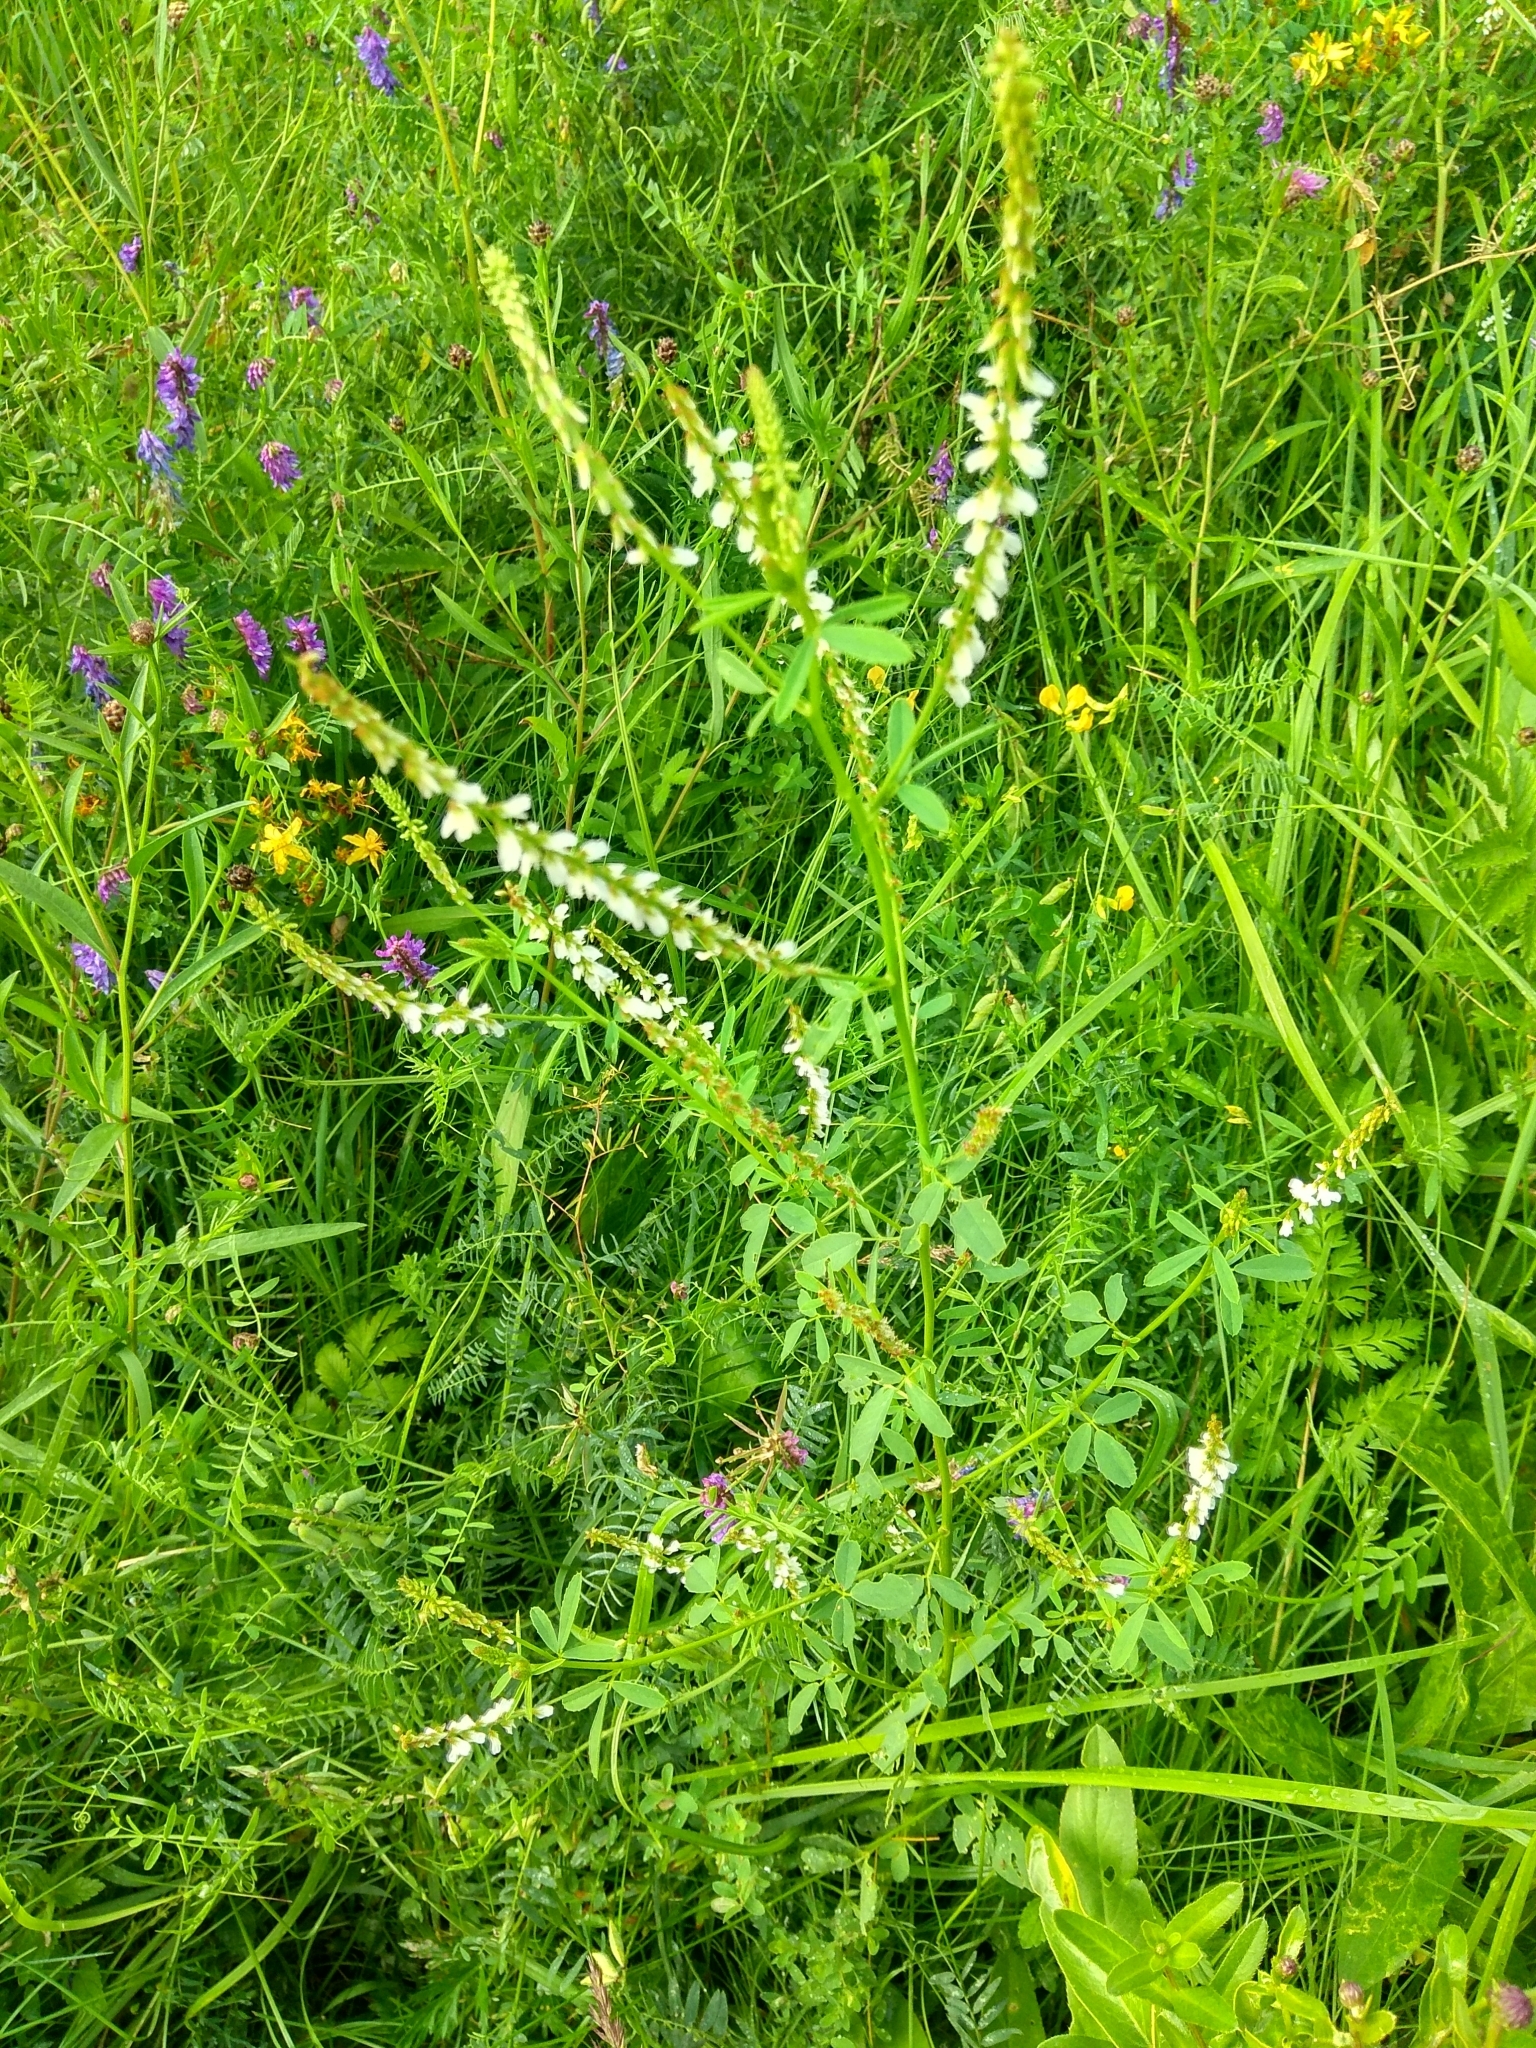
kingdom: Plantae
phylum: Tracheophyta
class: Magnoliopsida
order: Fabales
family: Fabaceae
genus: Melilotus
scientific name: Melilotus albus
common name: White melilot
